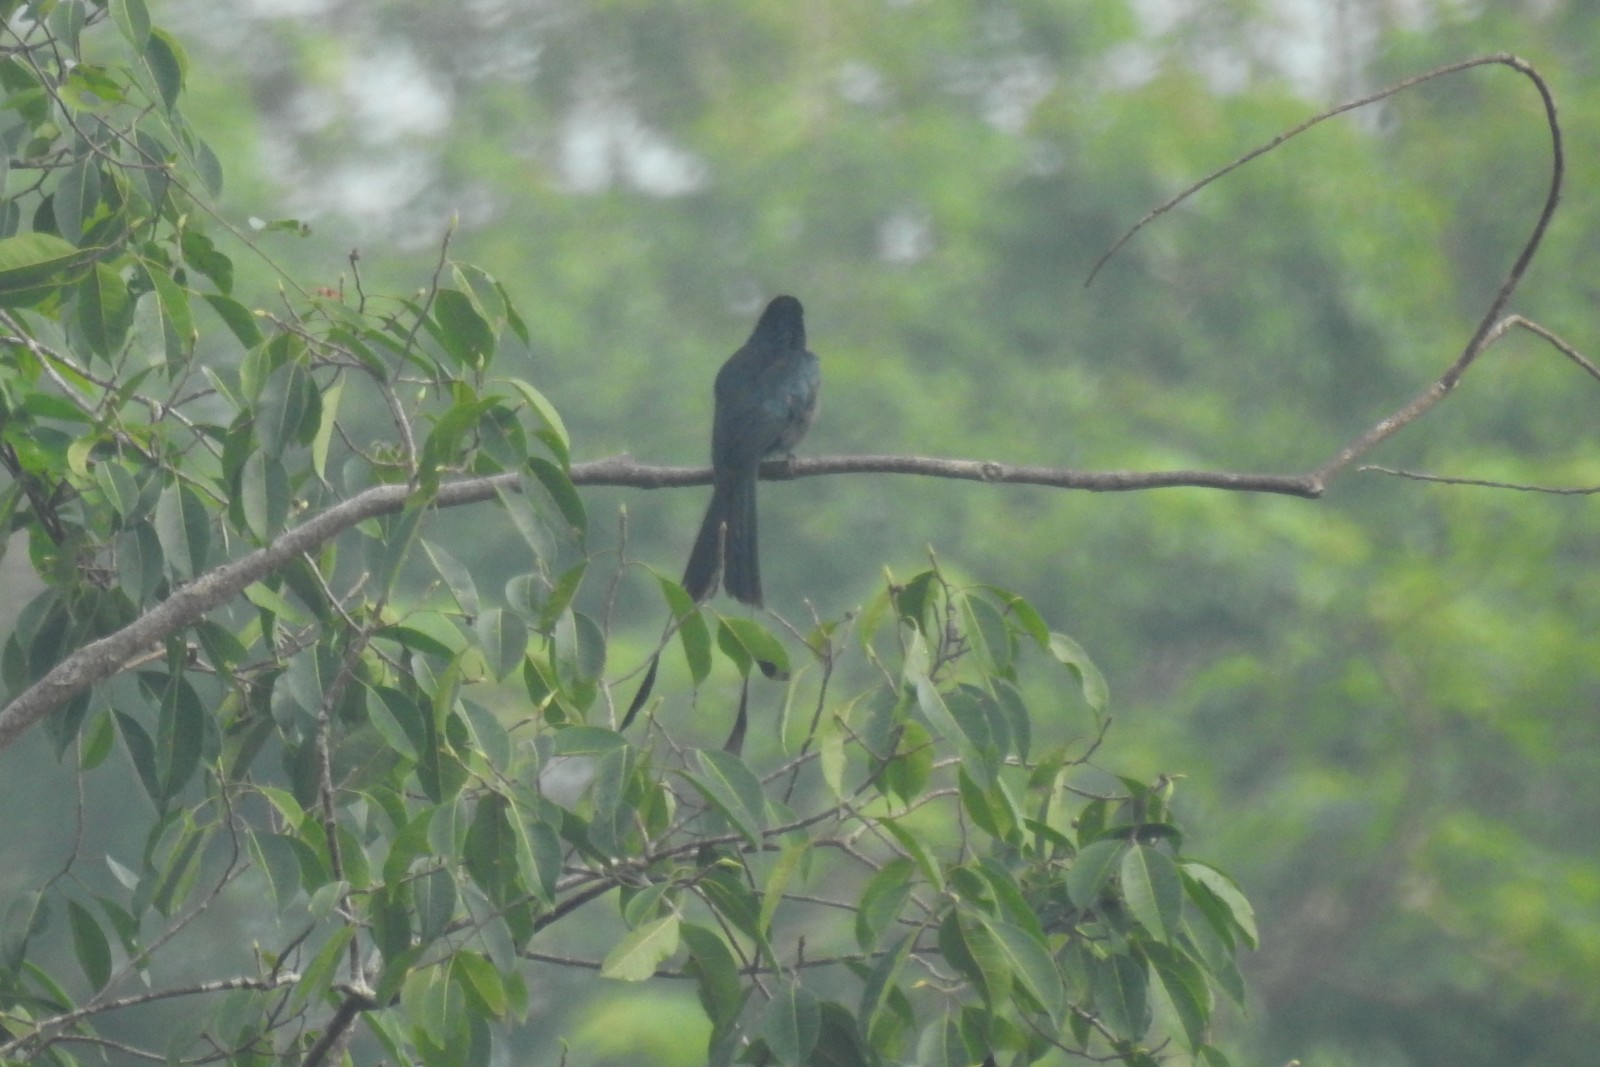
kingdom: Animalia
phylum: Chordata
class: Aves
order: Passeriformes
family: Dicruridae
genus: Dicrurus
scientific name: Dicrurus paradiseus
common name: Greater racket-tailed drongo
